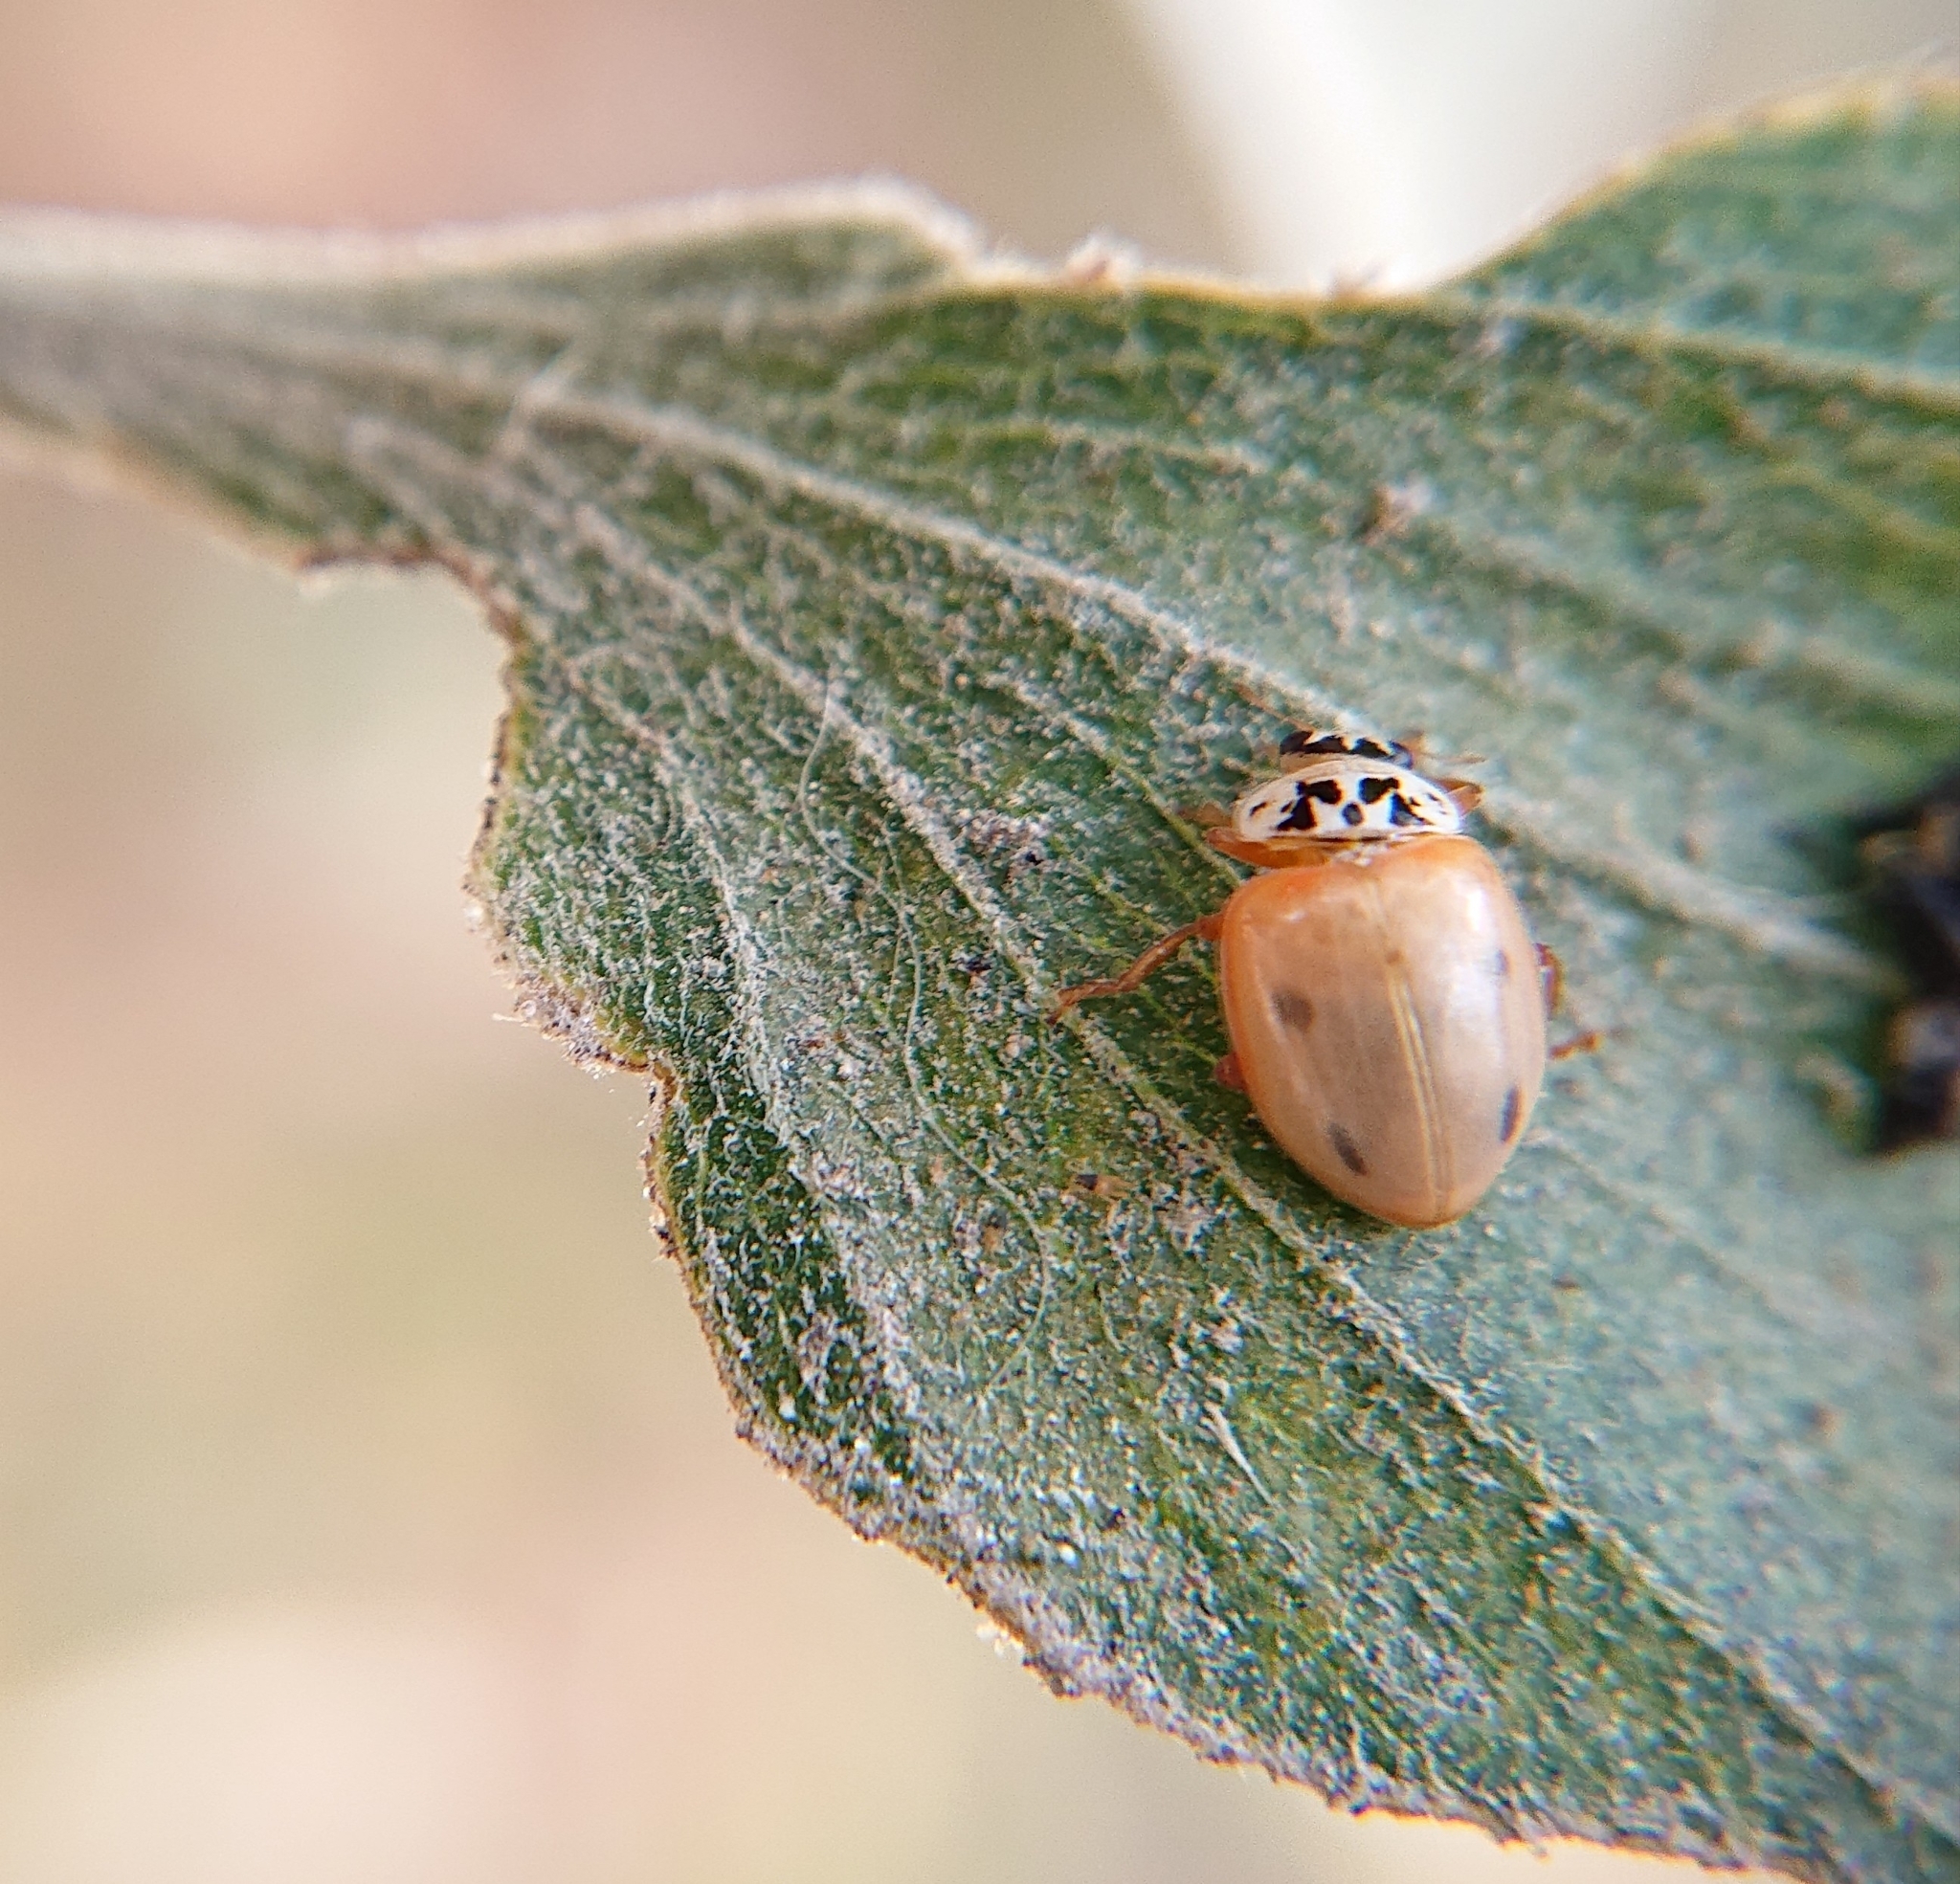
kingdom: Animalia
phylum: Arthropoda
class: Insecta
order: Coleoptera
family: Coccinellidae
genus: Mulsantina
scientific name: Mulsantina
